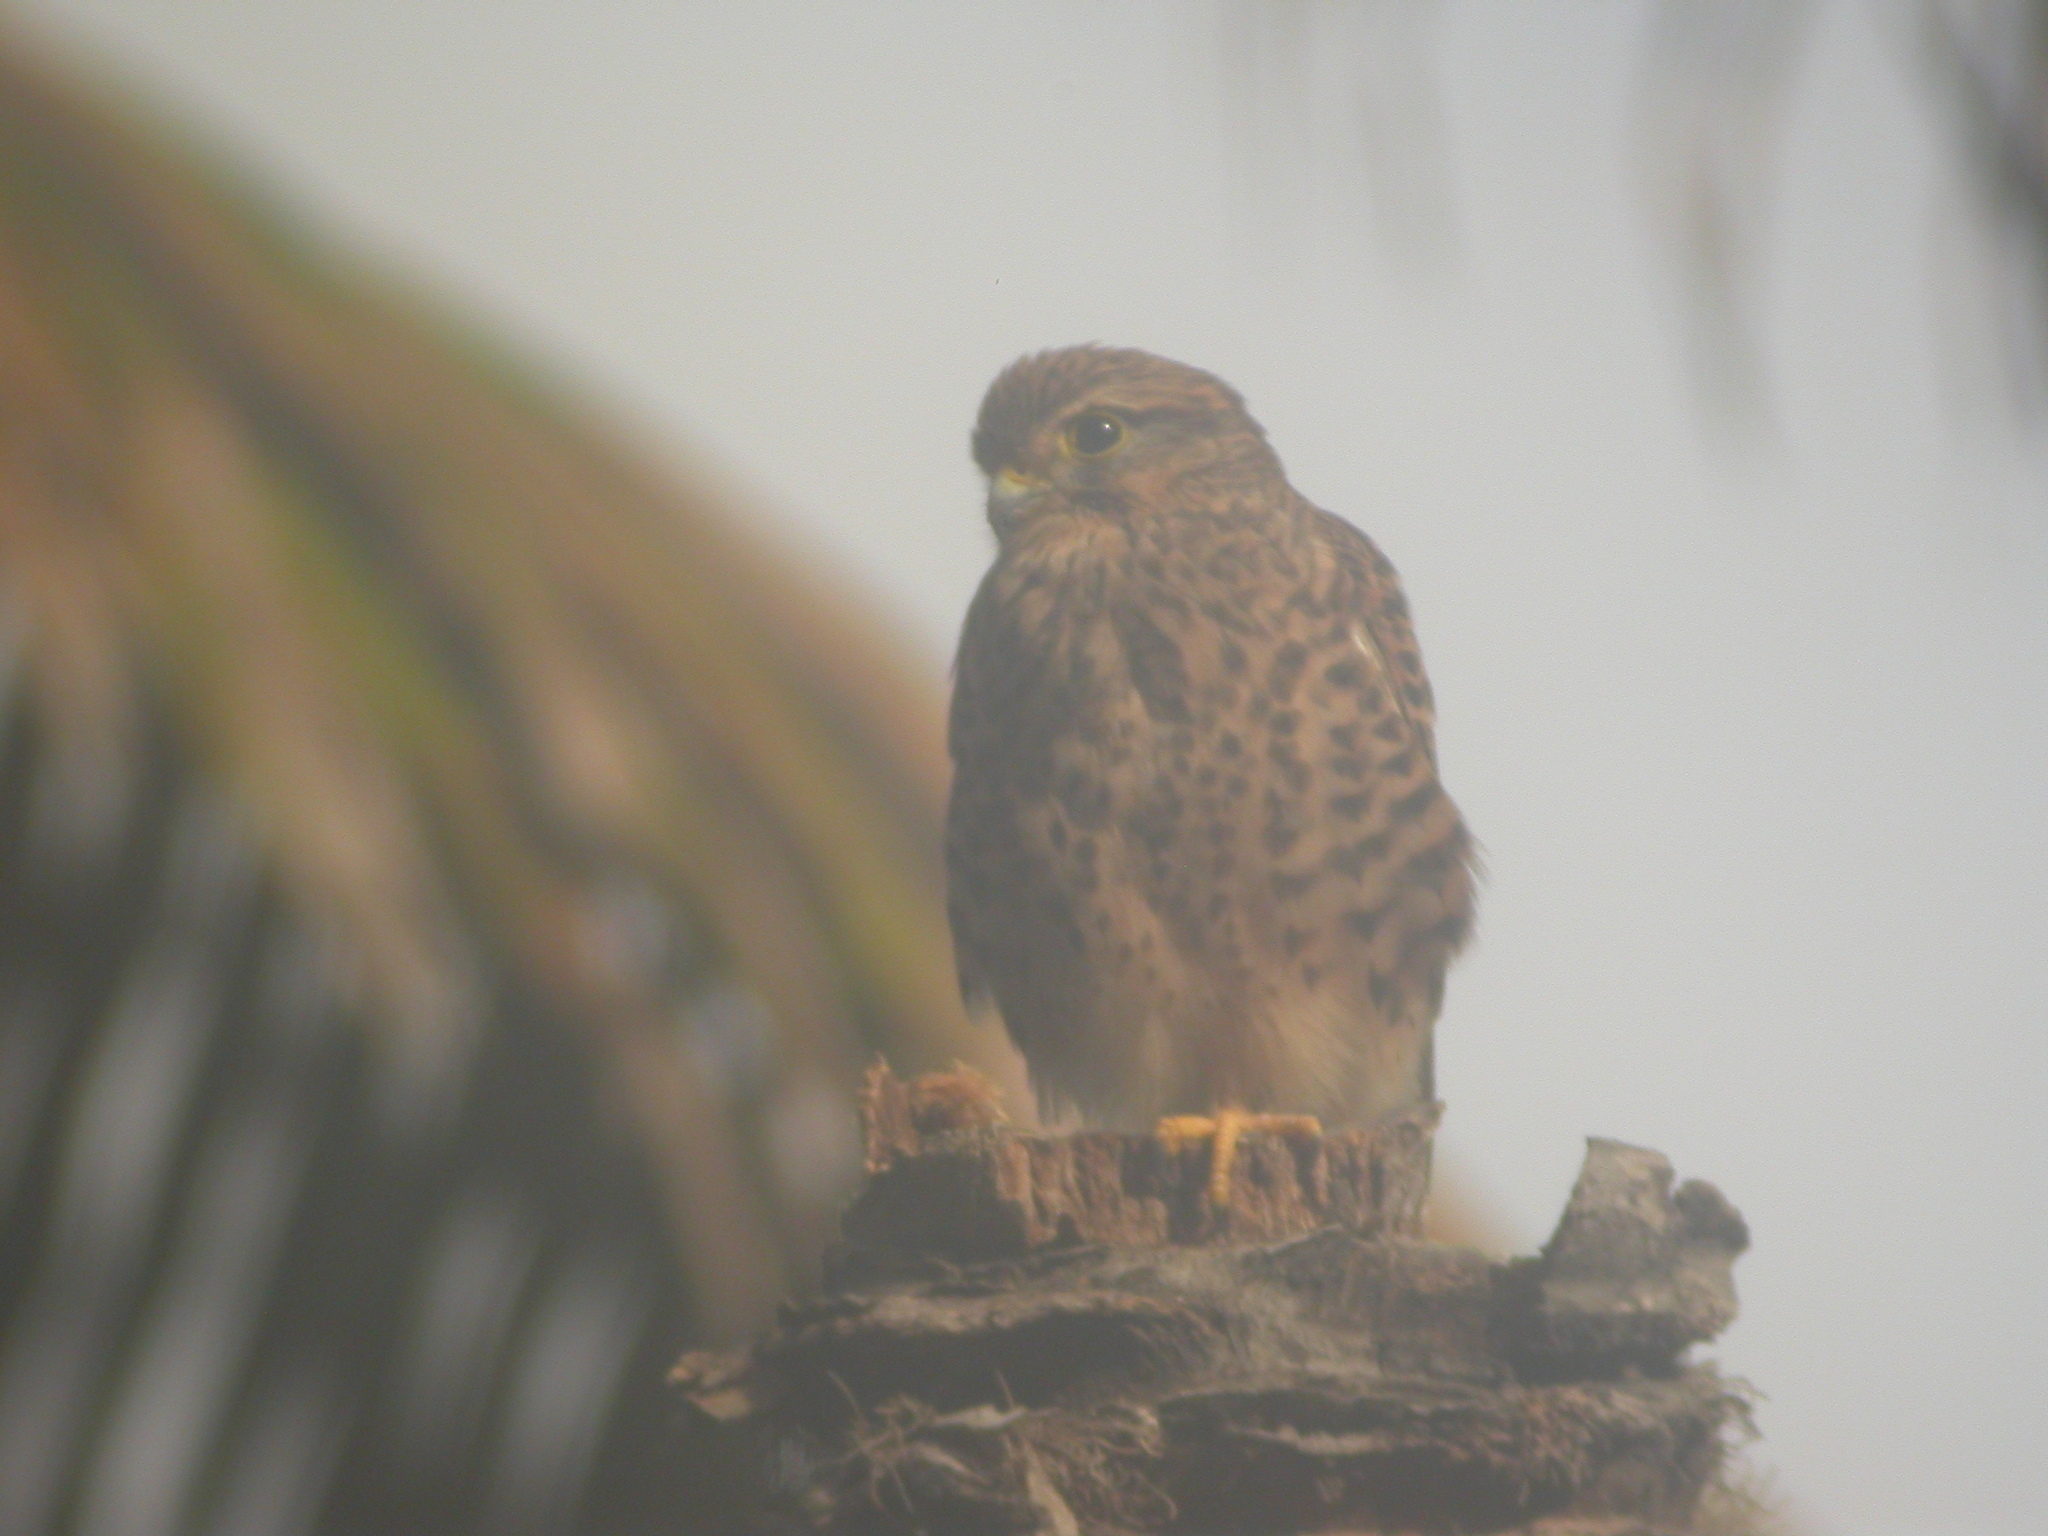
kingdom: Animalia
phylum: Chordata
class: Aves
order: Falconiformes
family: Falconidae
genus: Falco
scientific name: Falco tinnunculus
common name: Common kestrel
